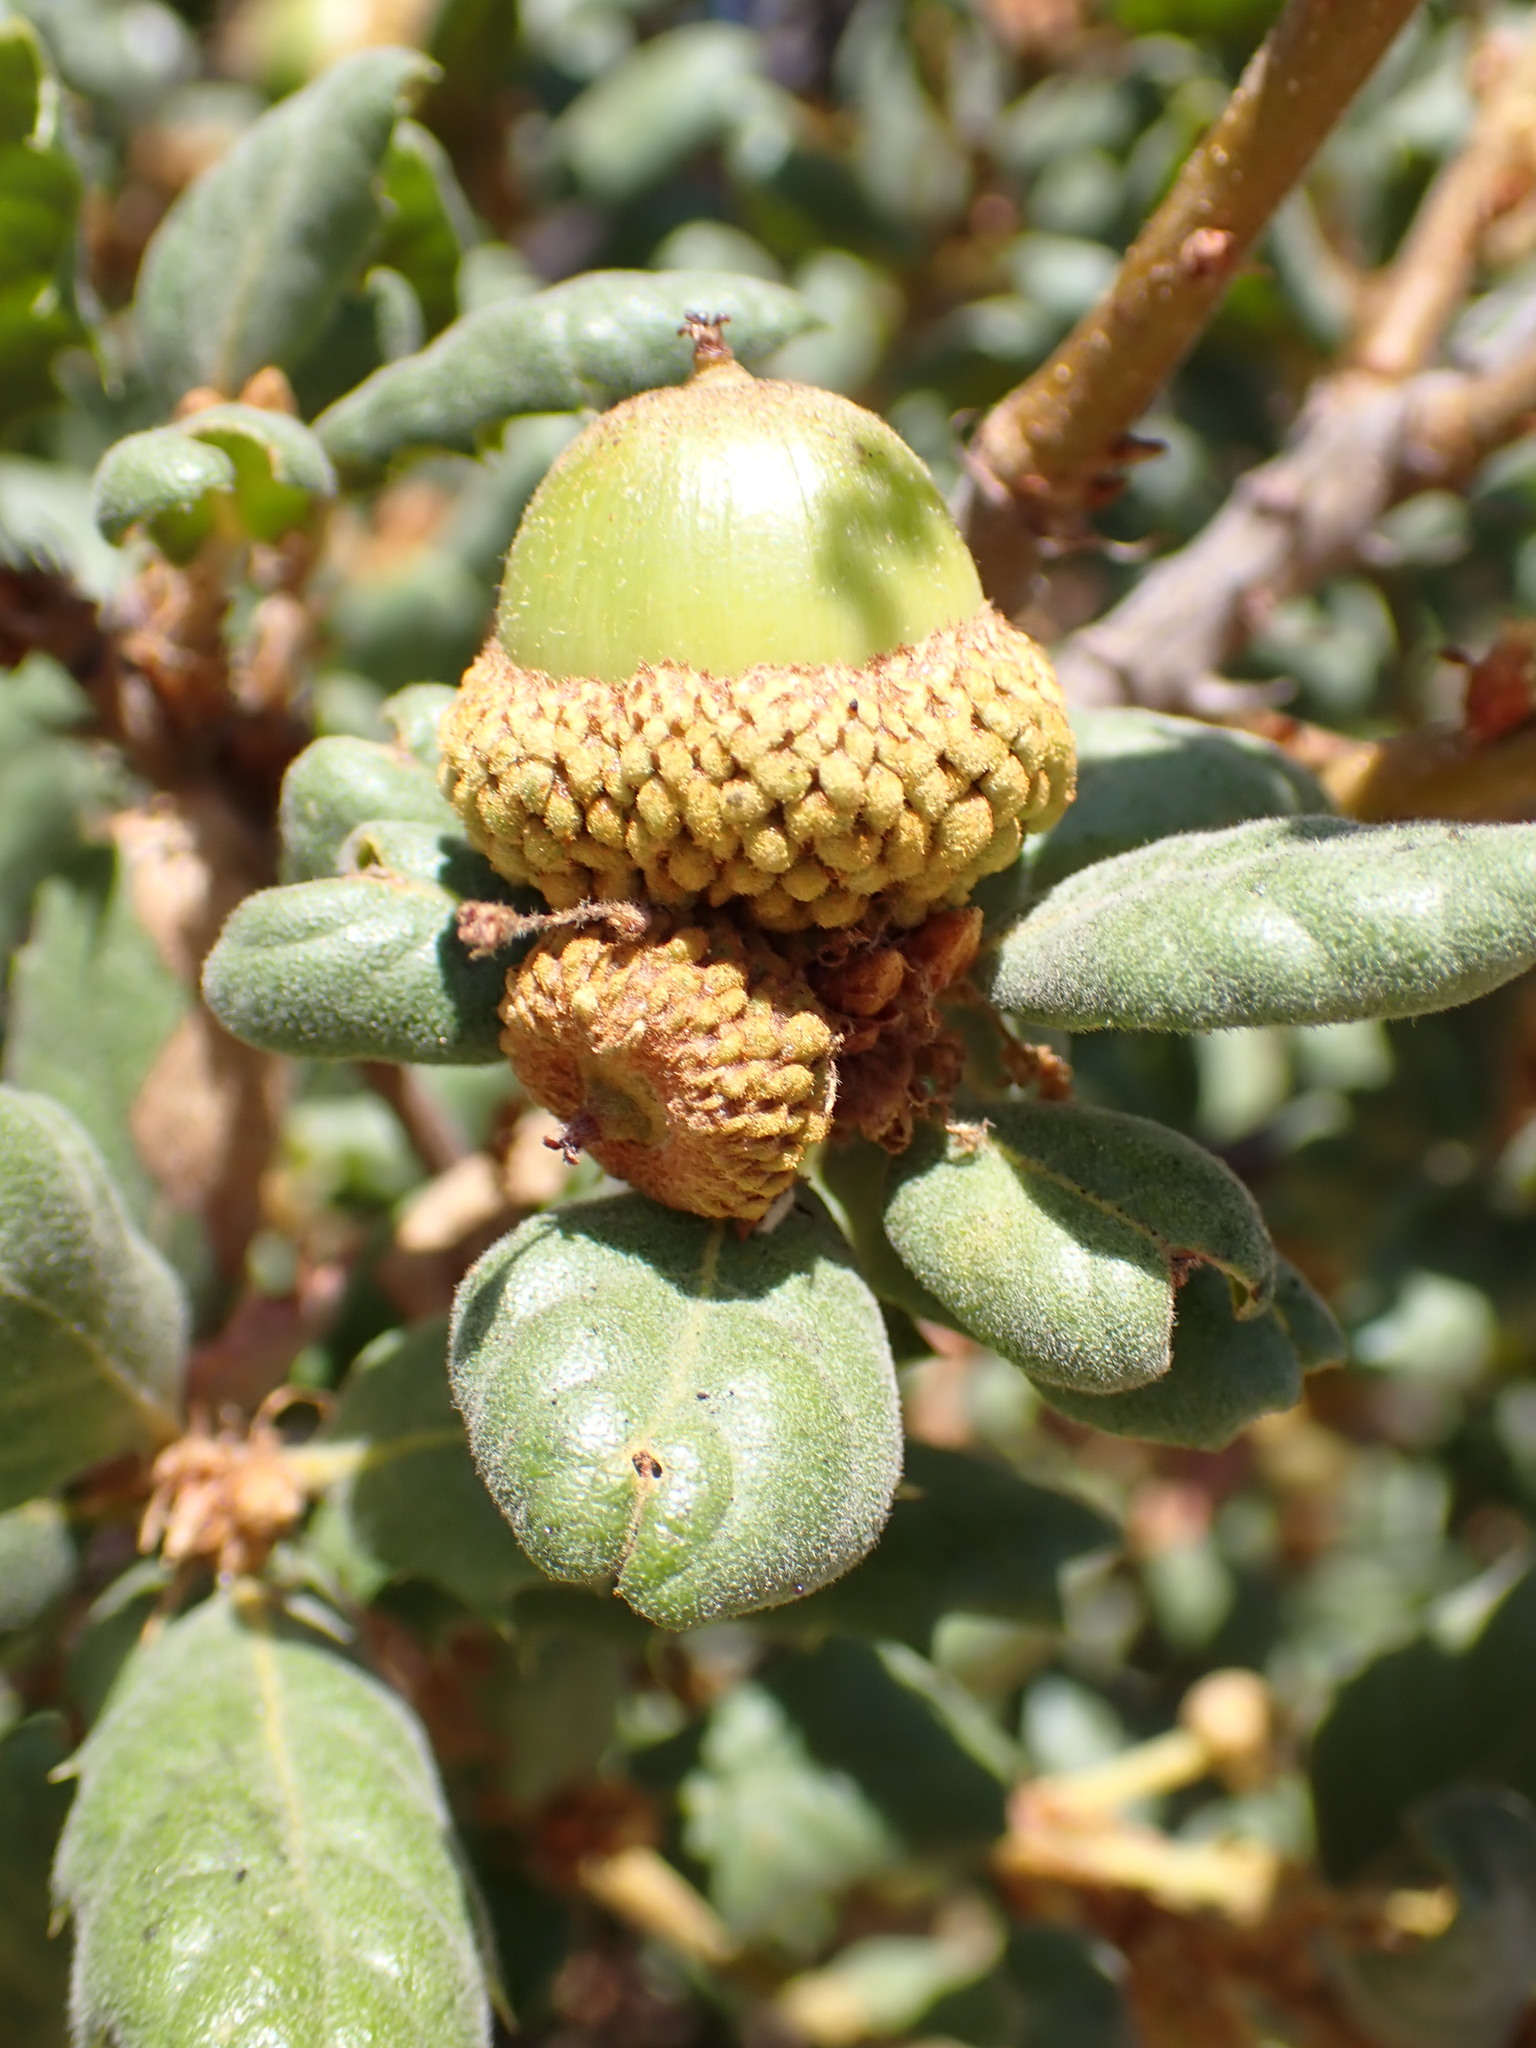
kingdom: Plantae
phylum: Tracheophyta
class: Magnoliopsida
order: Fagales
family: Fagaceae
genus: Quercus
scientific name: Quercus durata
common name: Leather oak
